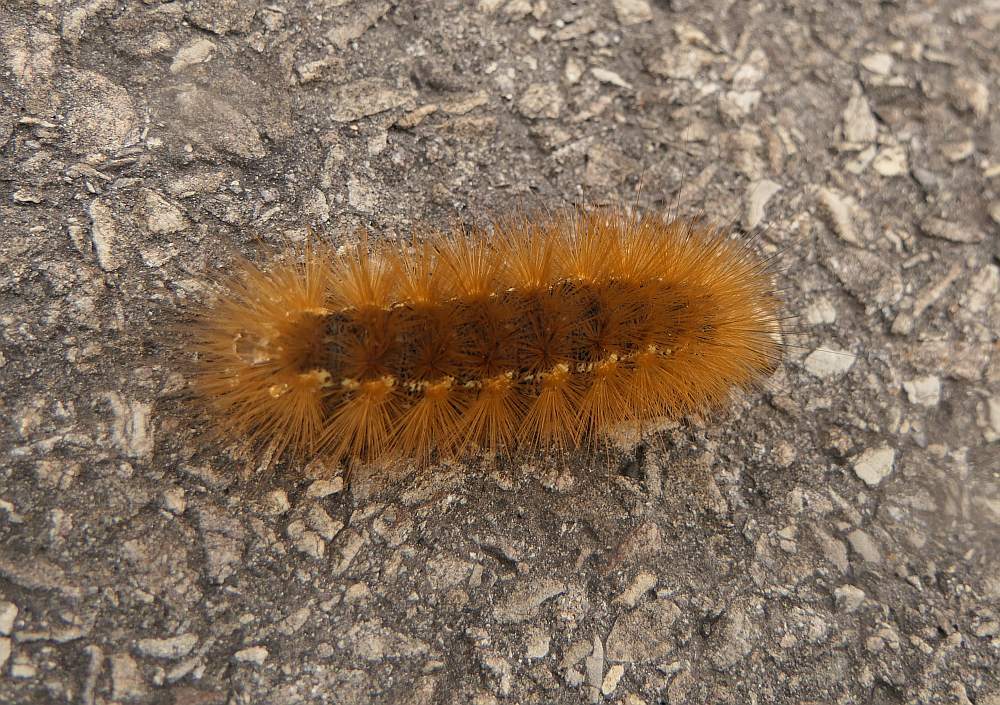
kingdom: Animalia
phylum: Arthropoda
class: Insecta
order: Lepidoptera
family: Erebidae
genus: Estigmene
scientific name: Estigmene acrea
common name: Salt marsh moth
